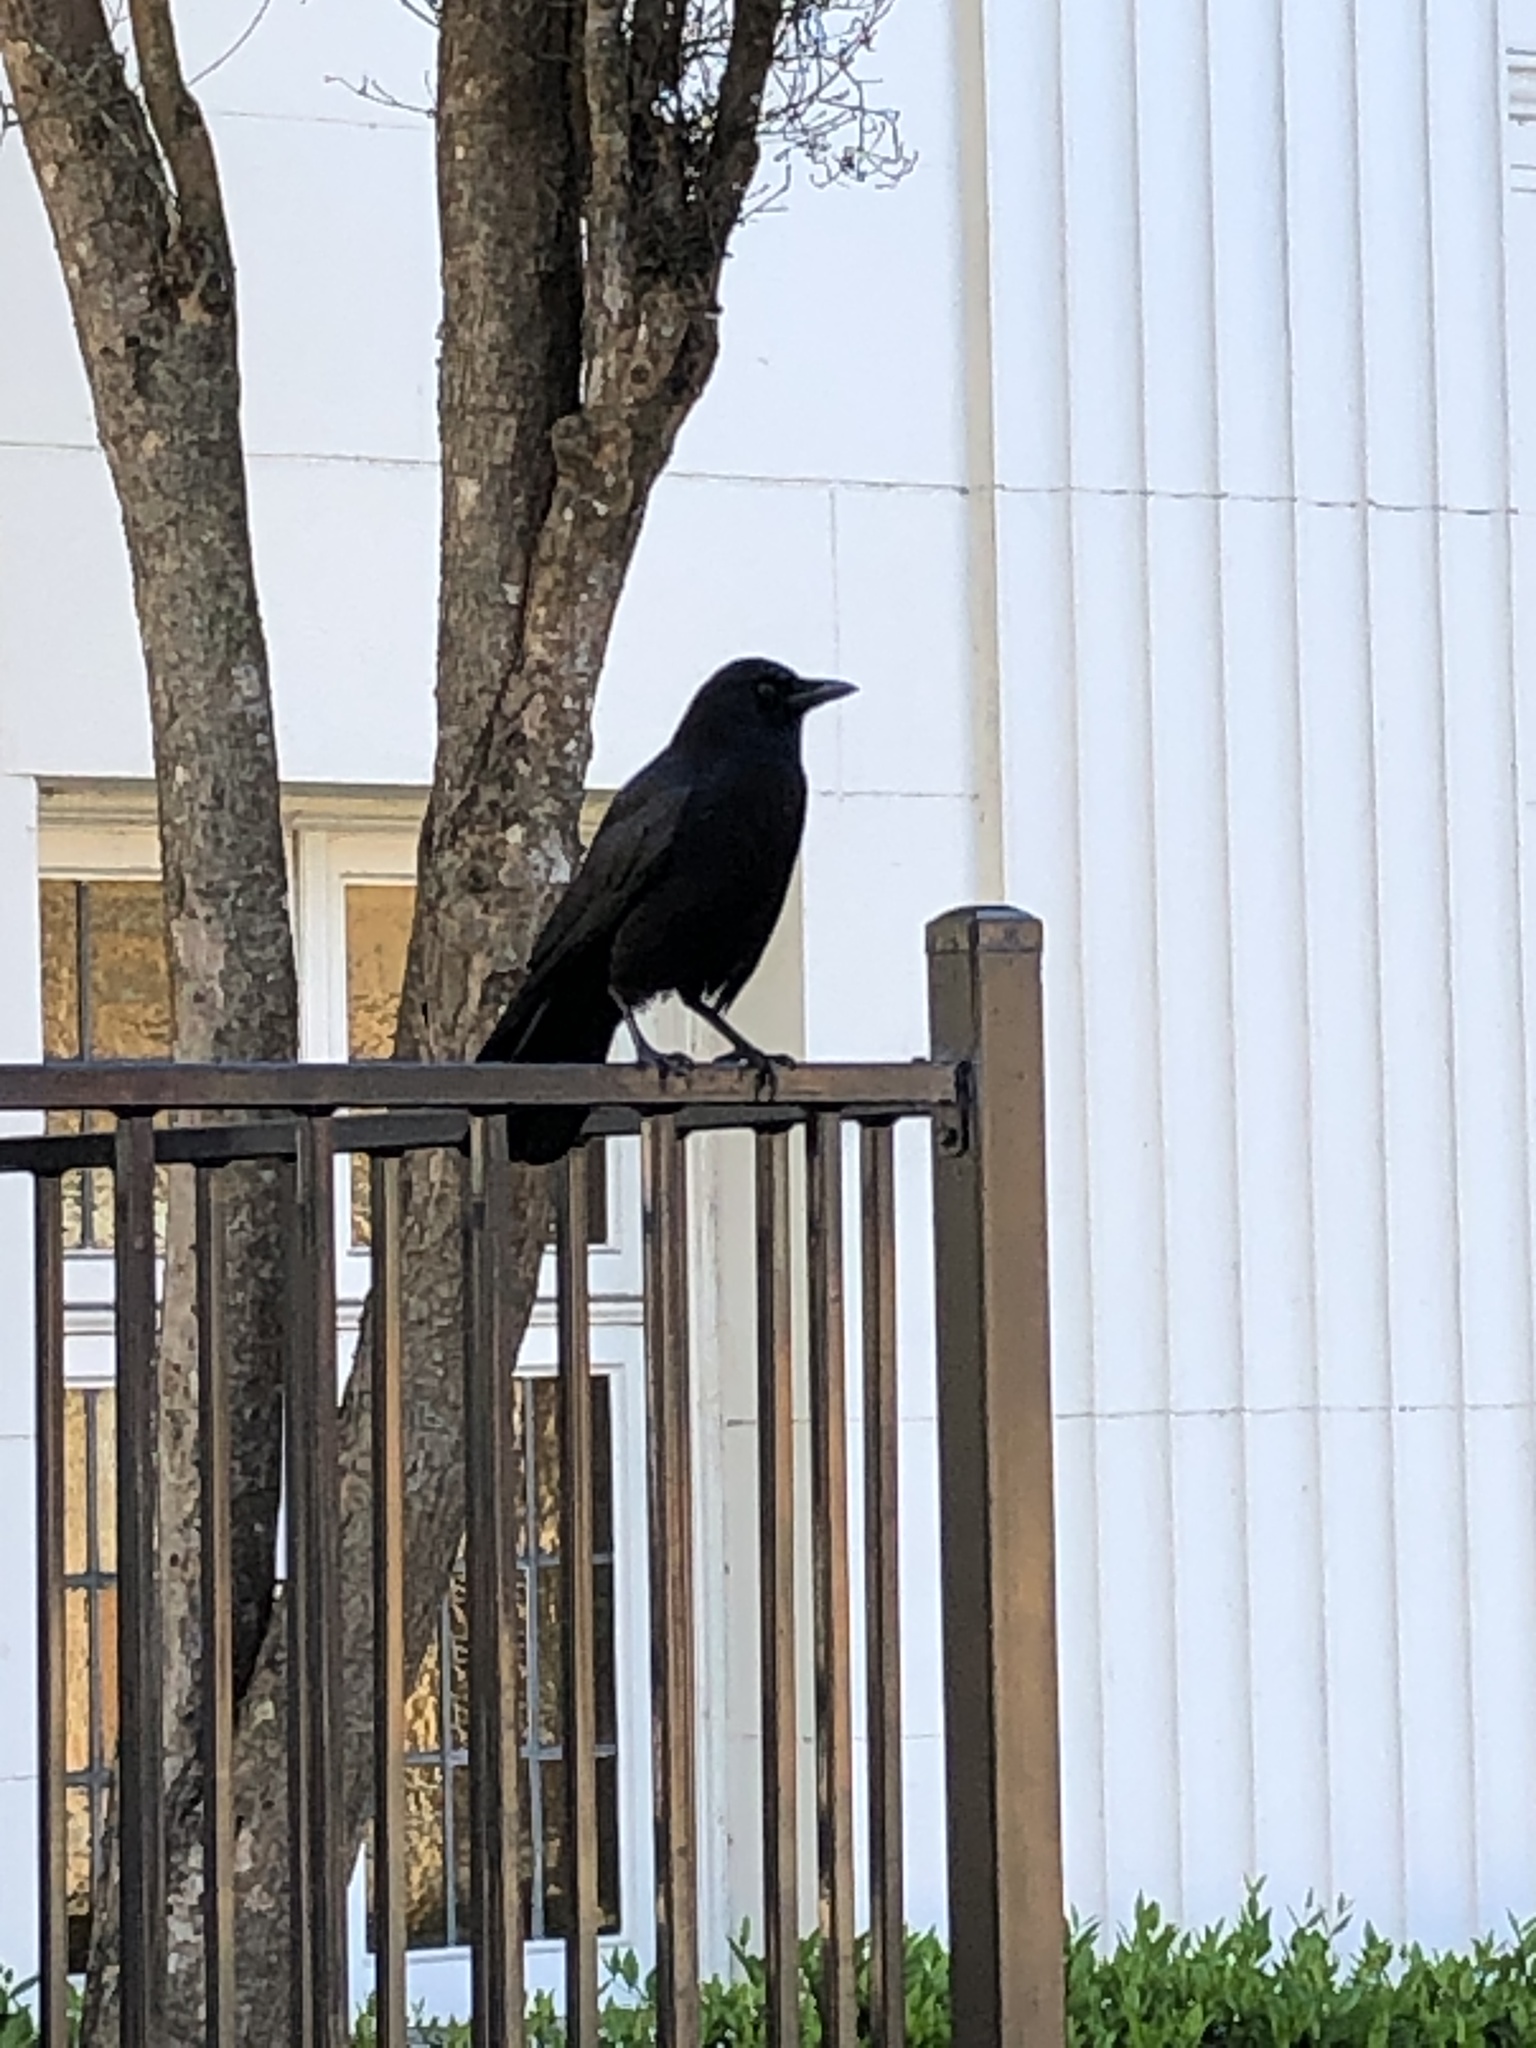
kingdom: Animalia
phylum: Chordata
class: Aves
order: Passeriformes
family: Corvidae
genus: Corvus
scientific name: Corvus brachyrhynchos
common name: American crow
